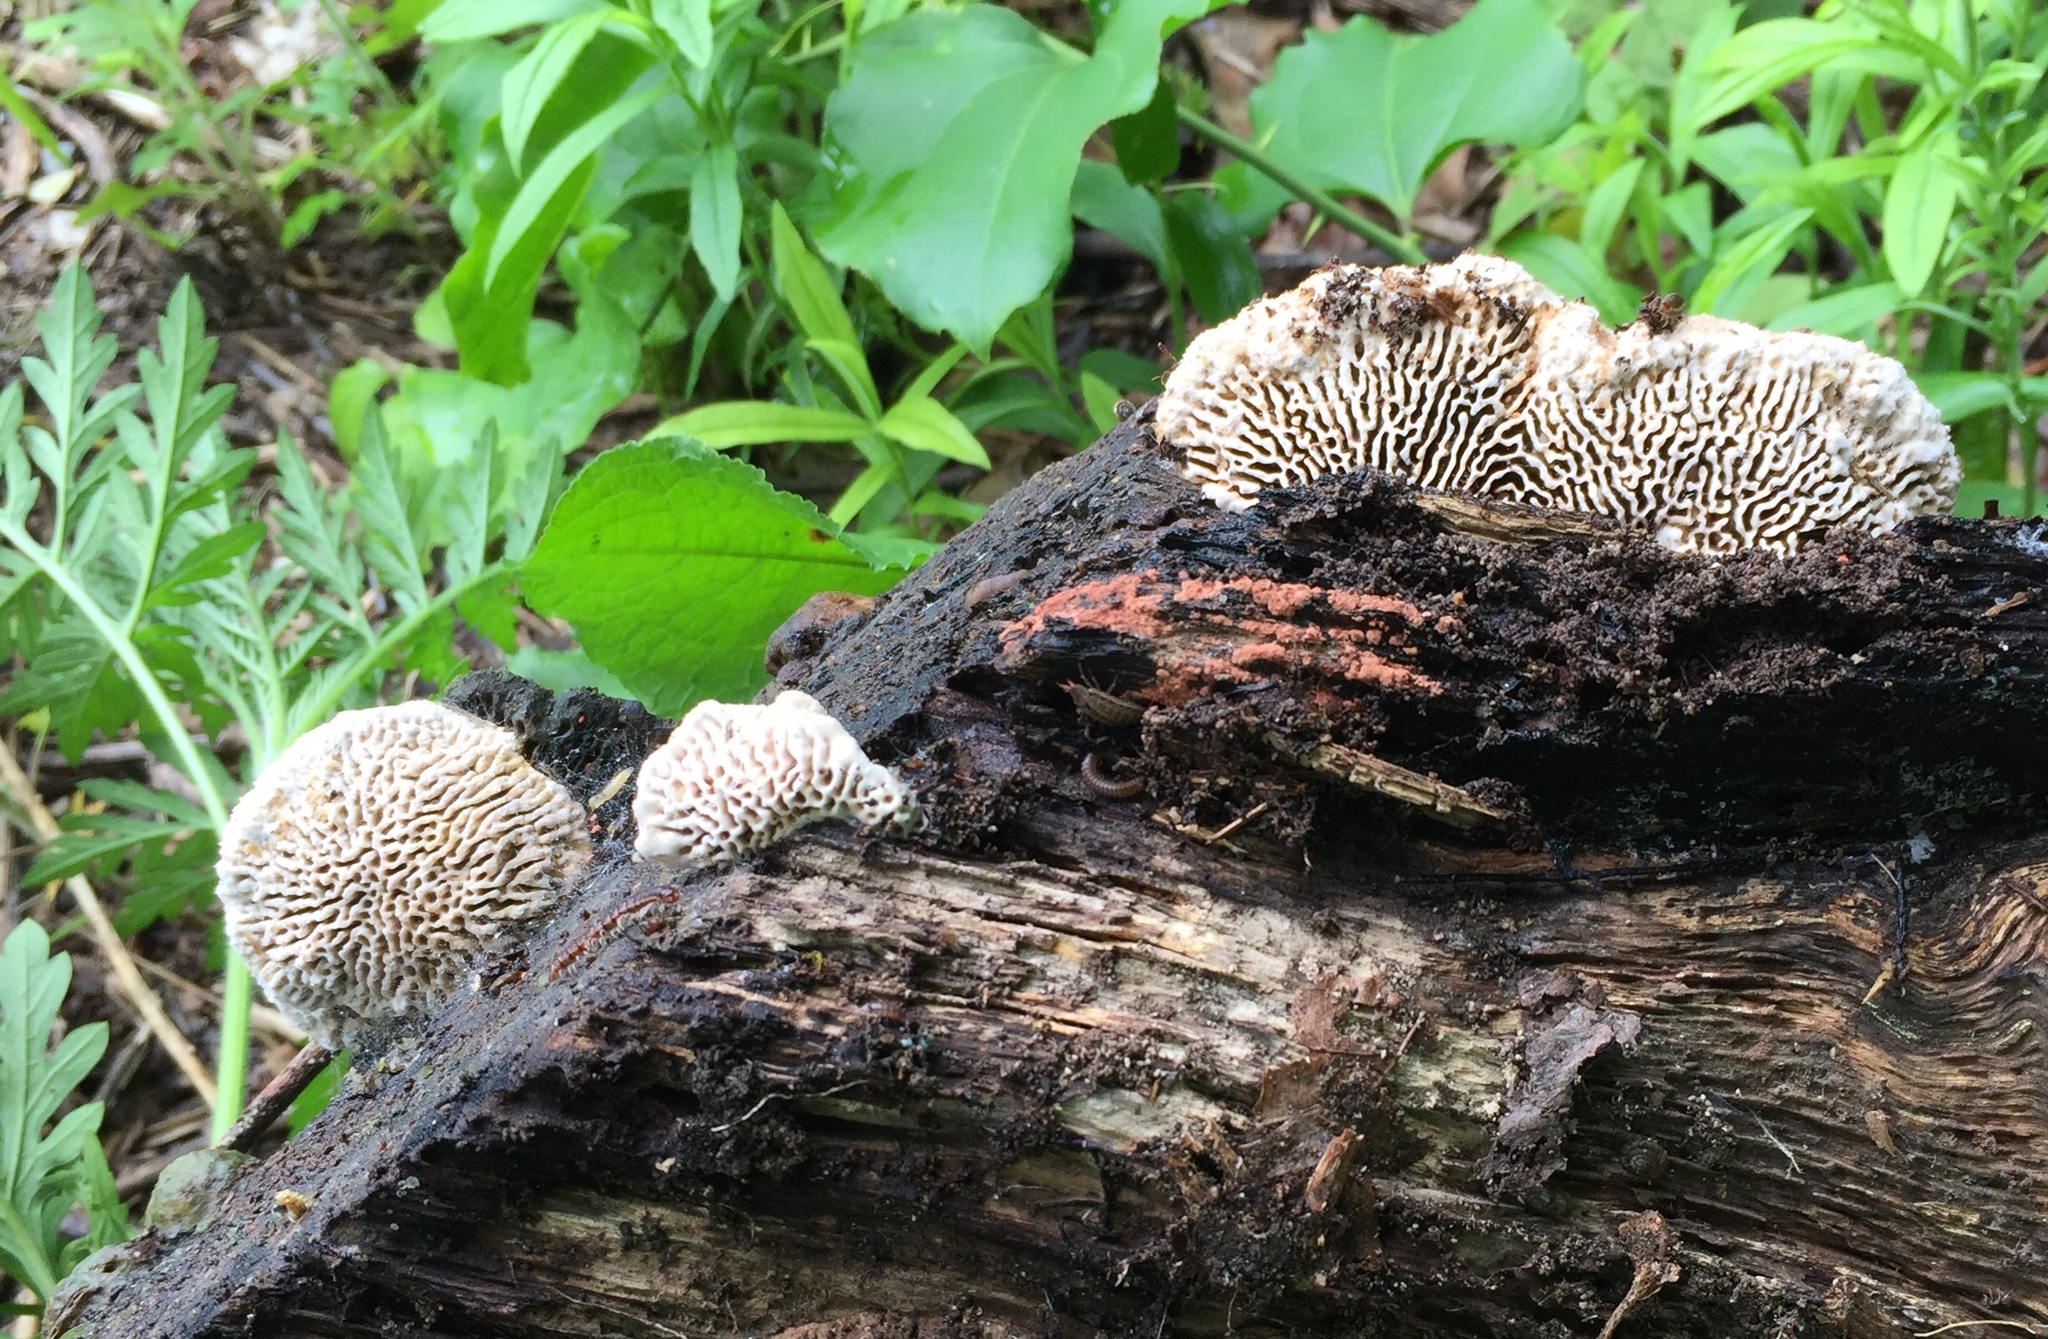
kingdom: Fungi
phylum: Basidiomycota
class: Agaricomycetes
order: Polyporales
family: Fomitopsidaceae
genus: Fomitopsis
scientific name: Fomitopsis
